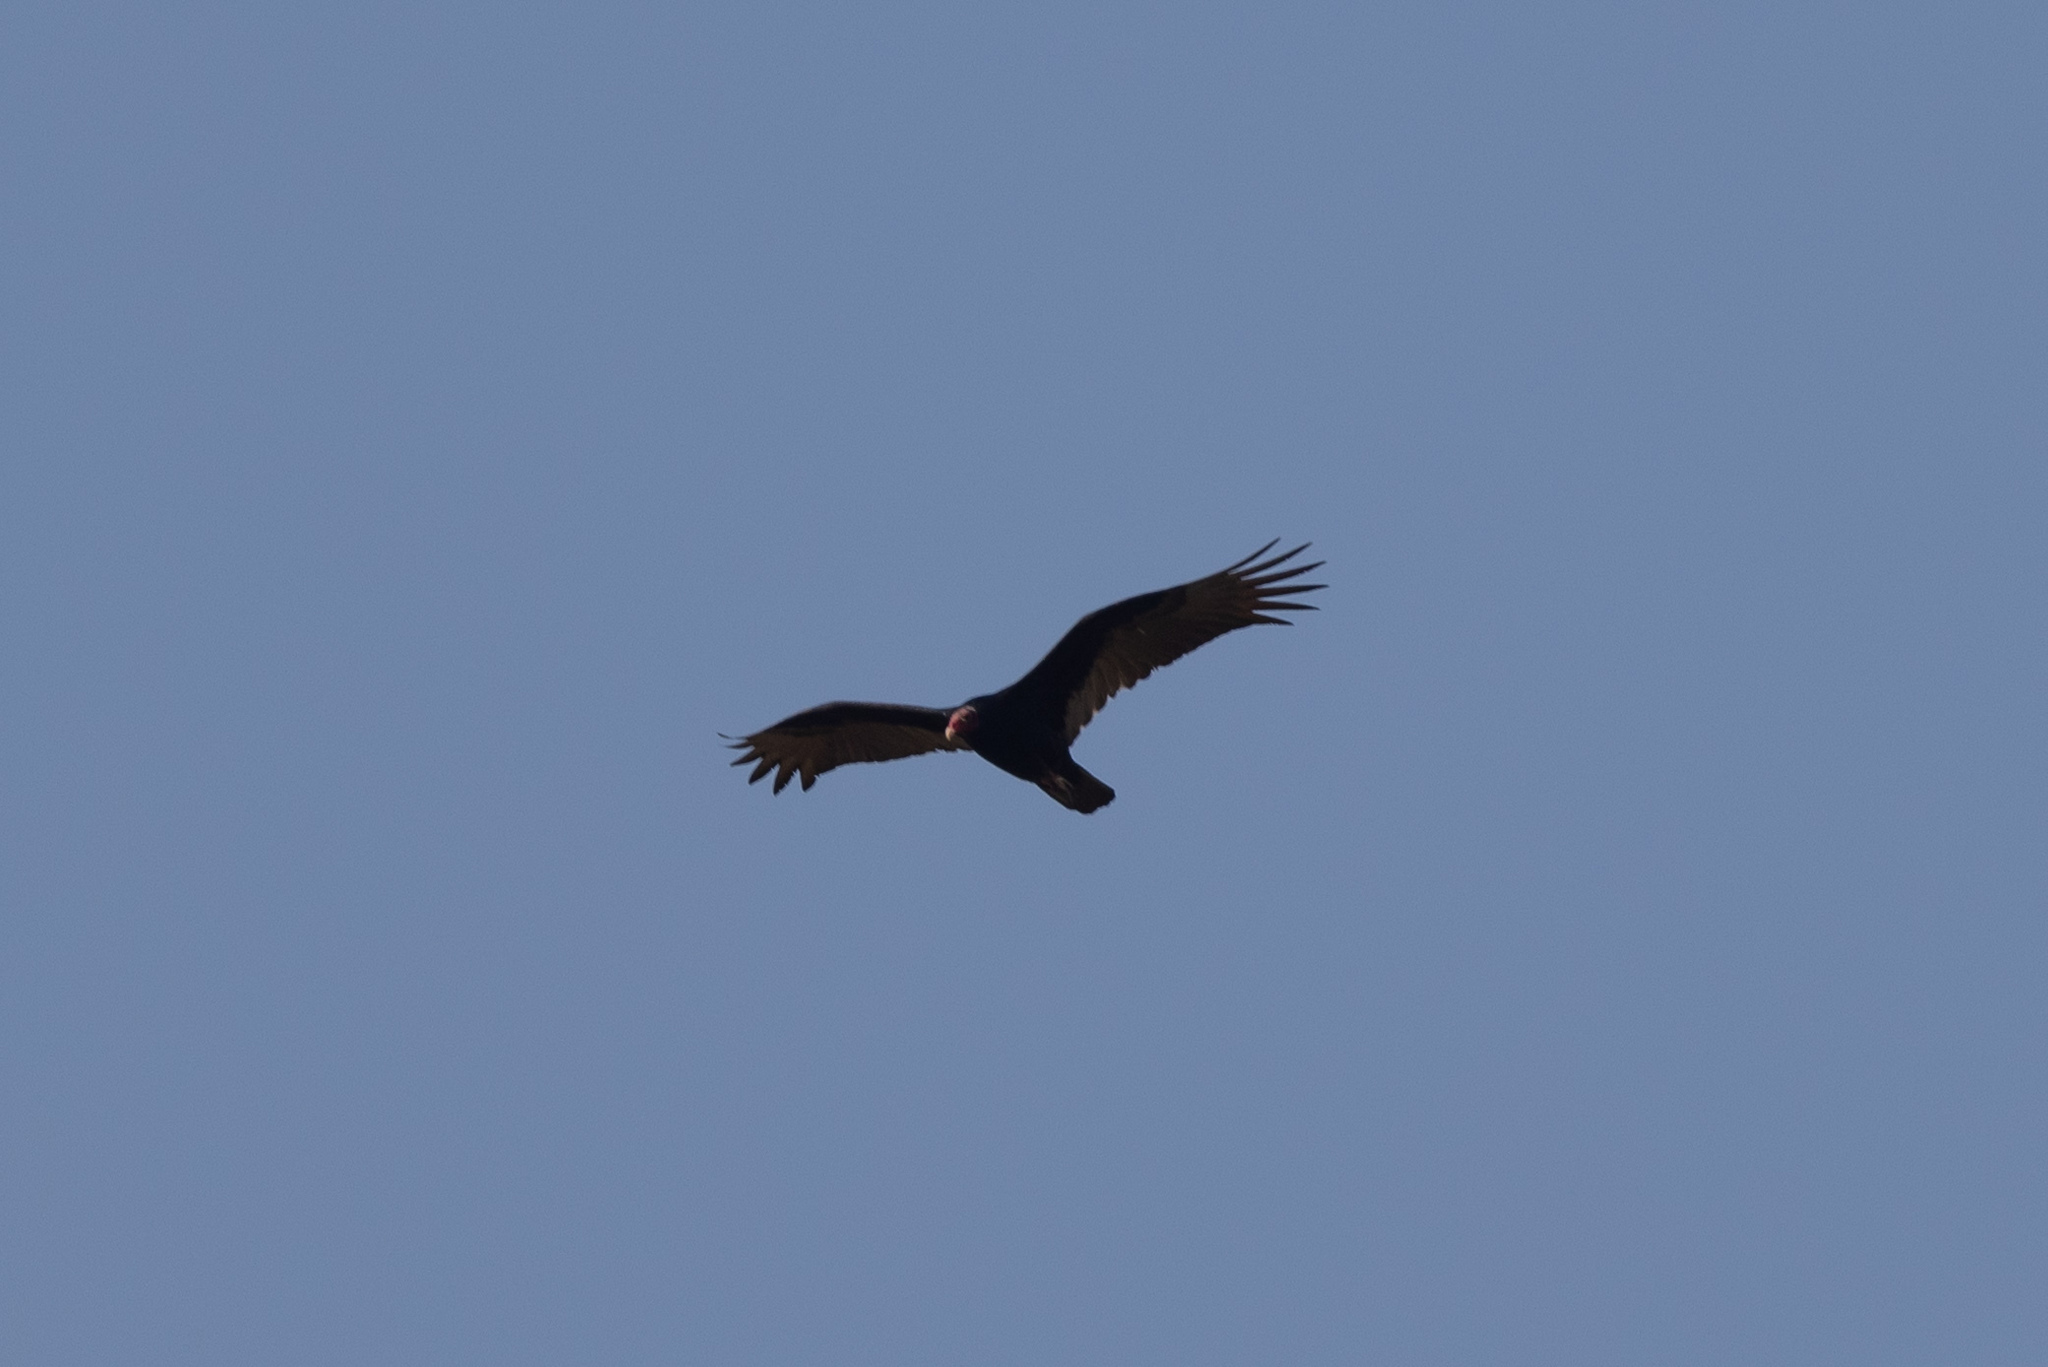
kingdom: Animalia
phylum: Chordata
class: Aves
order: Accipitriformes
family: Cathartidae
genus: Cathartes
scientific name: Cathartes aura
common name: Turkey vulture
